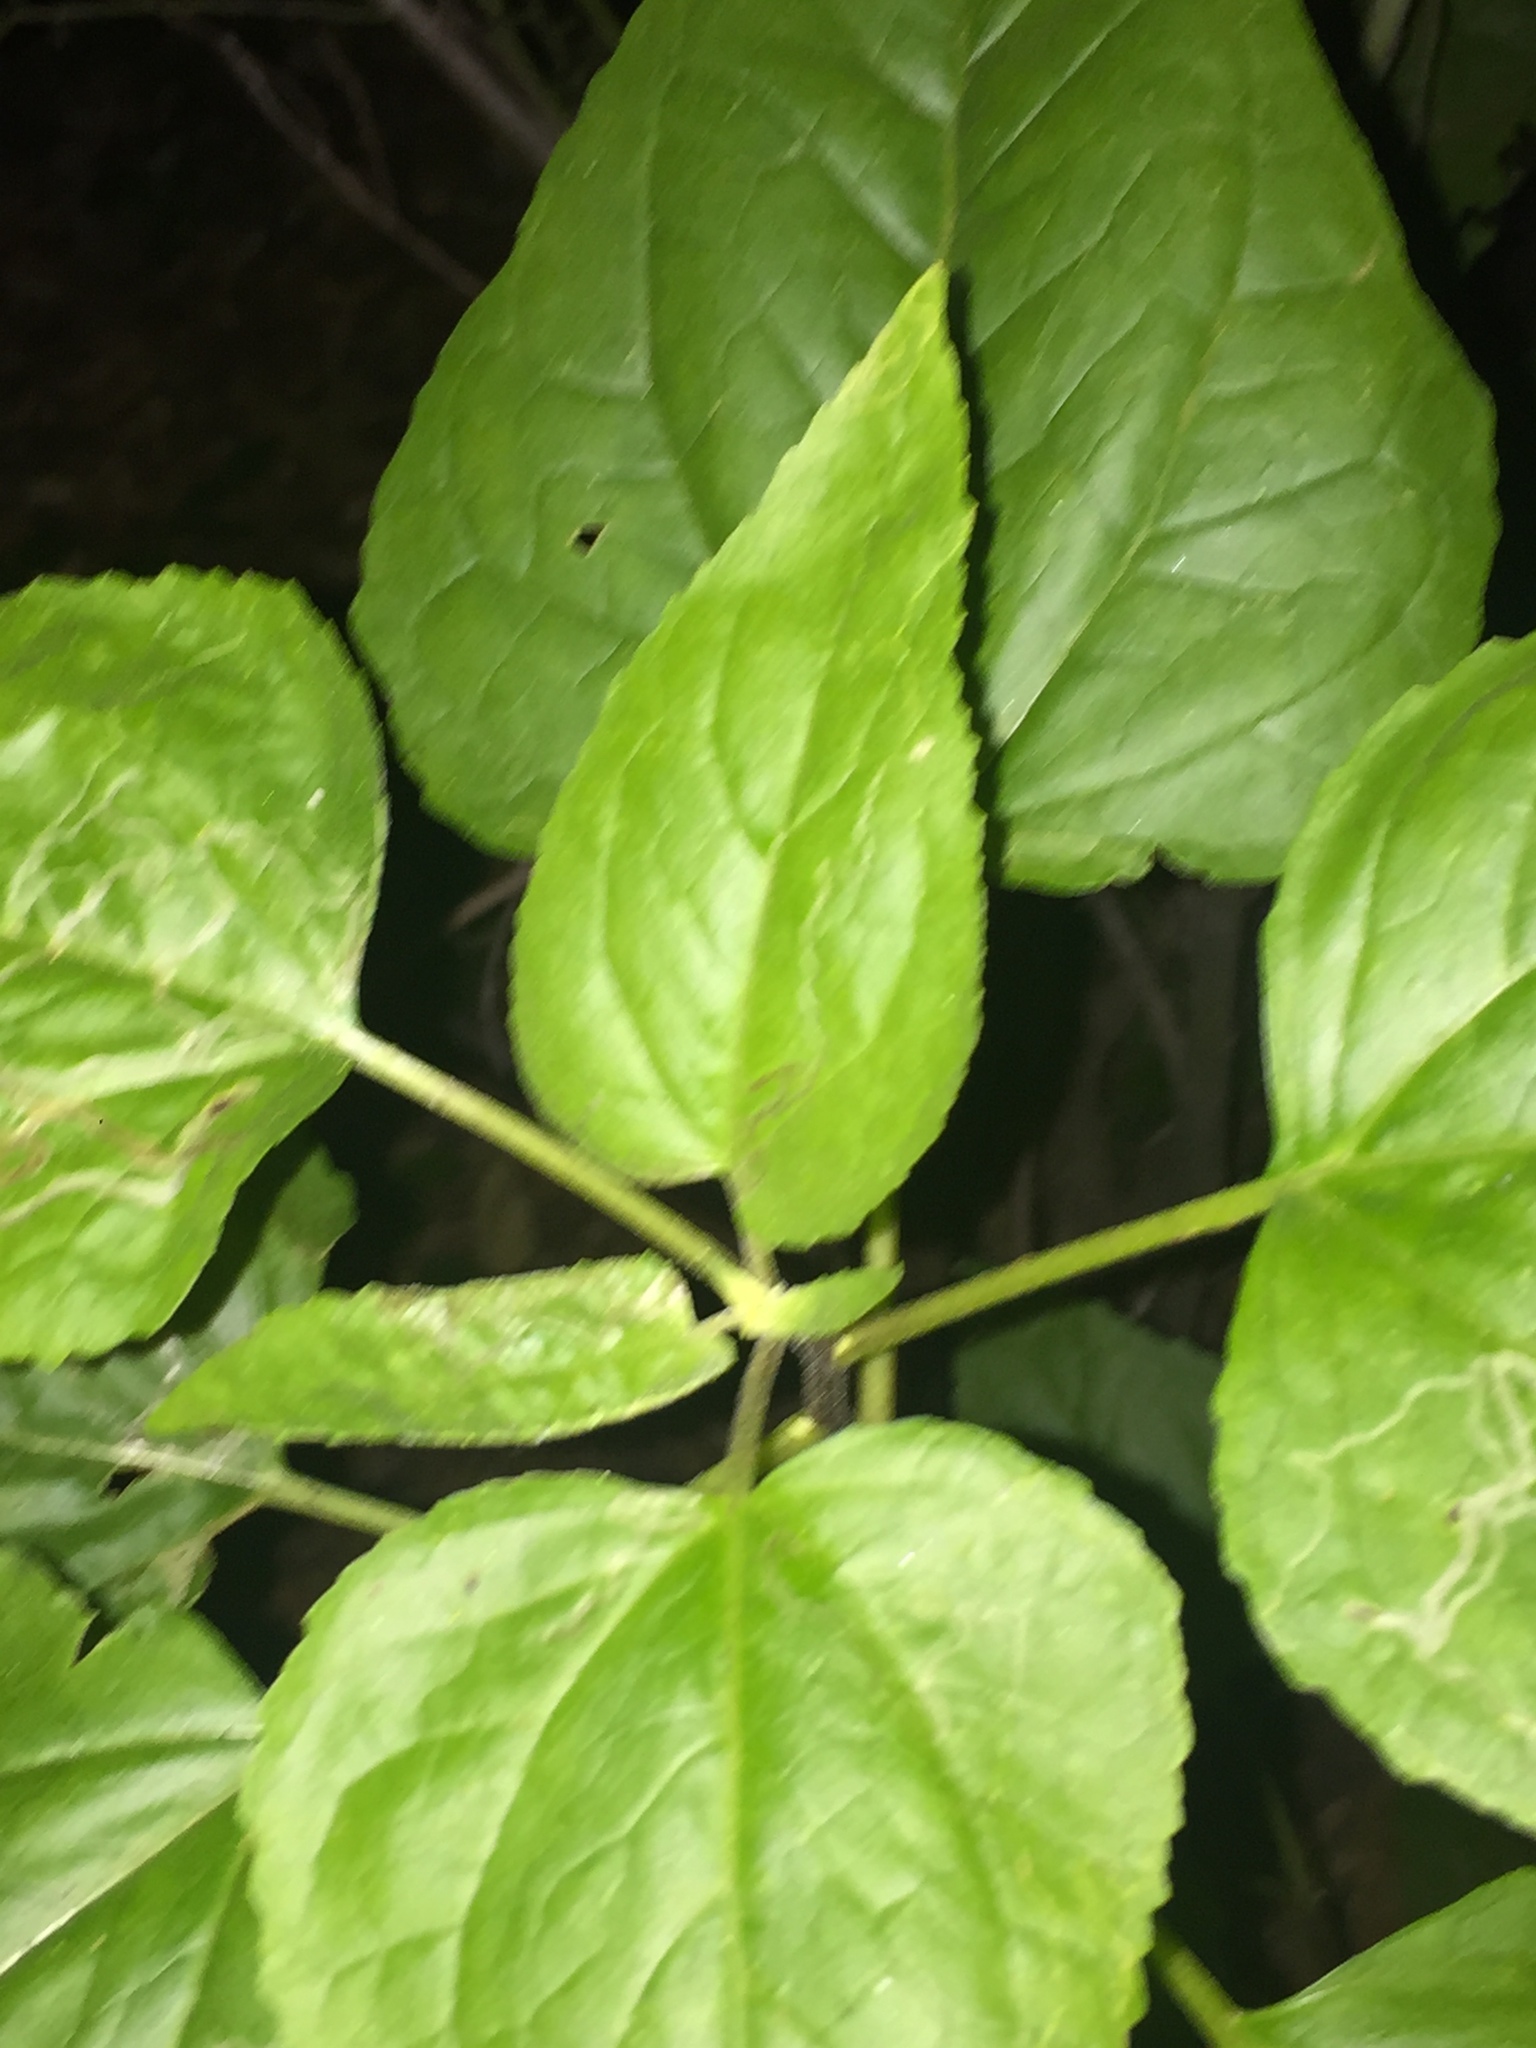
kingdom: Plantae
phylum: Tracheophyta
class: Magnoliopsida
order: Asterales
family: Asteraceae
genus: Venegasia
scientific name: Venegasia carpesioides
